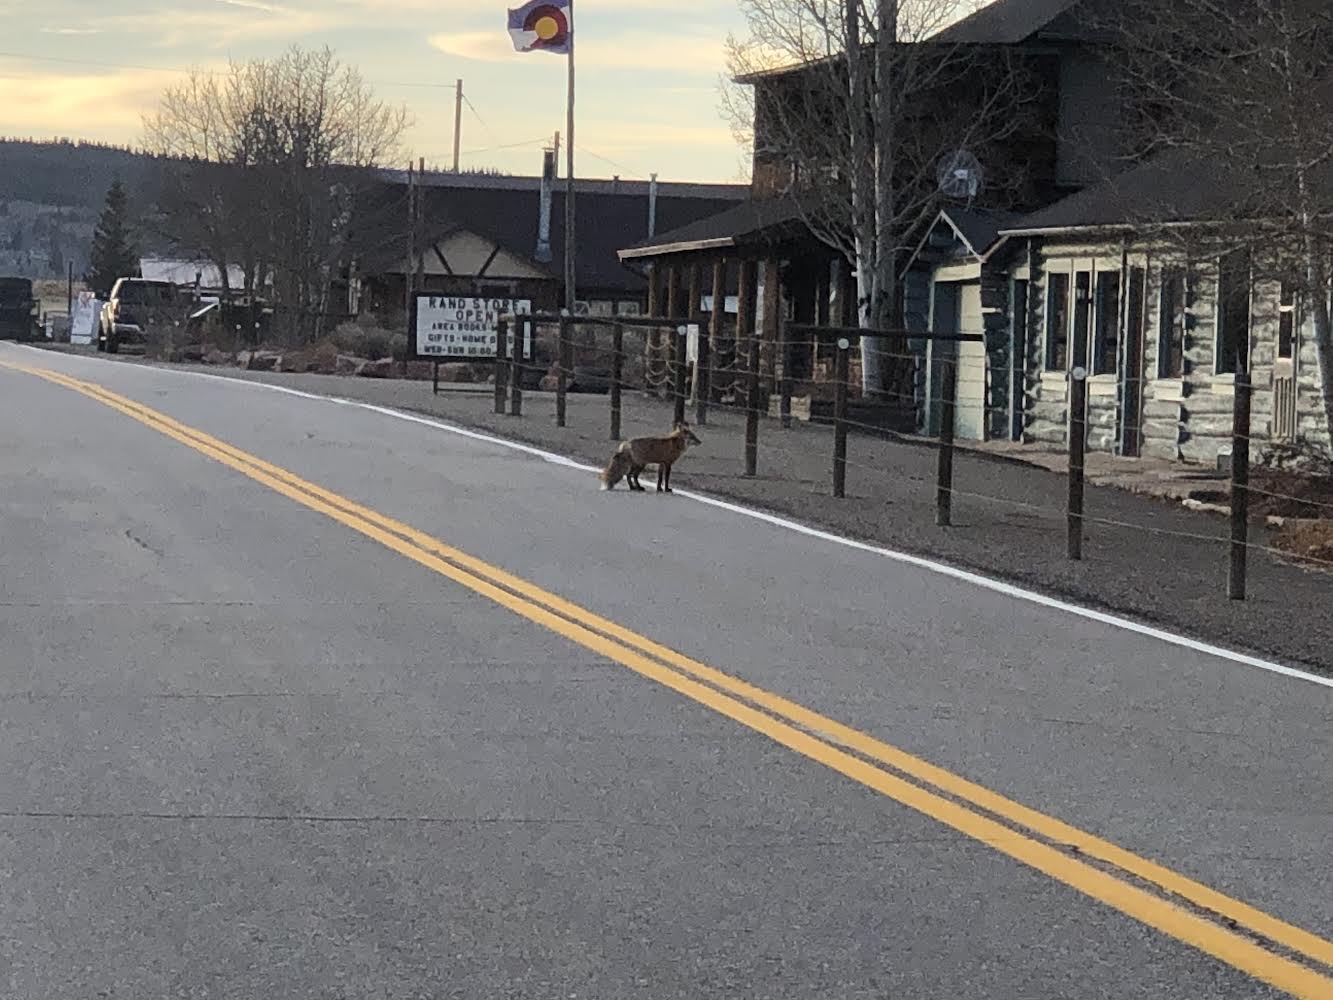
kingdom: Animalia
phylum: Chordata
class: Mammalia
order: Carnivora
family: Canidae
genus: Vulpes
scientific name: Vulpes vulpes
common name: Red fox
